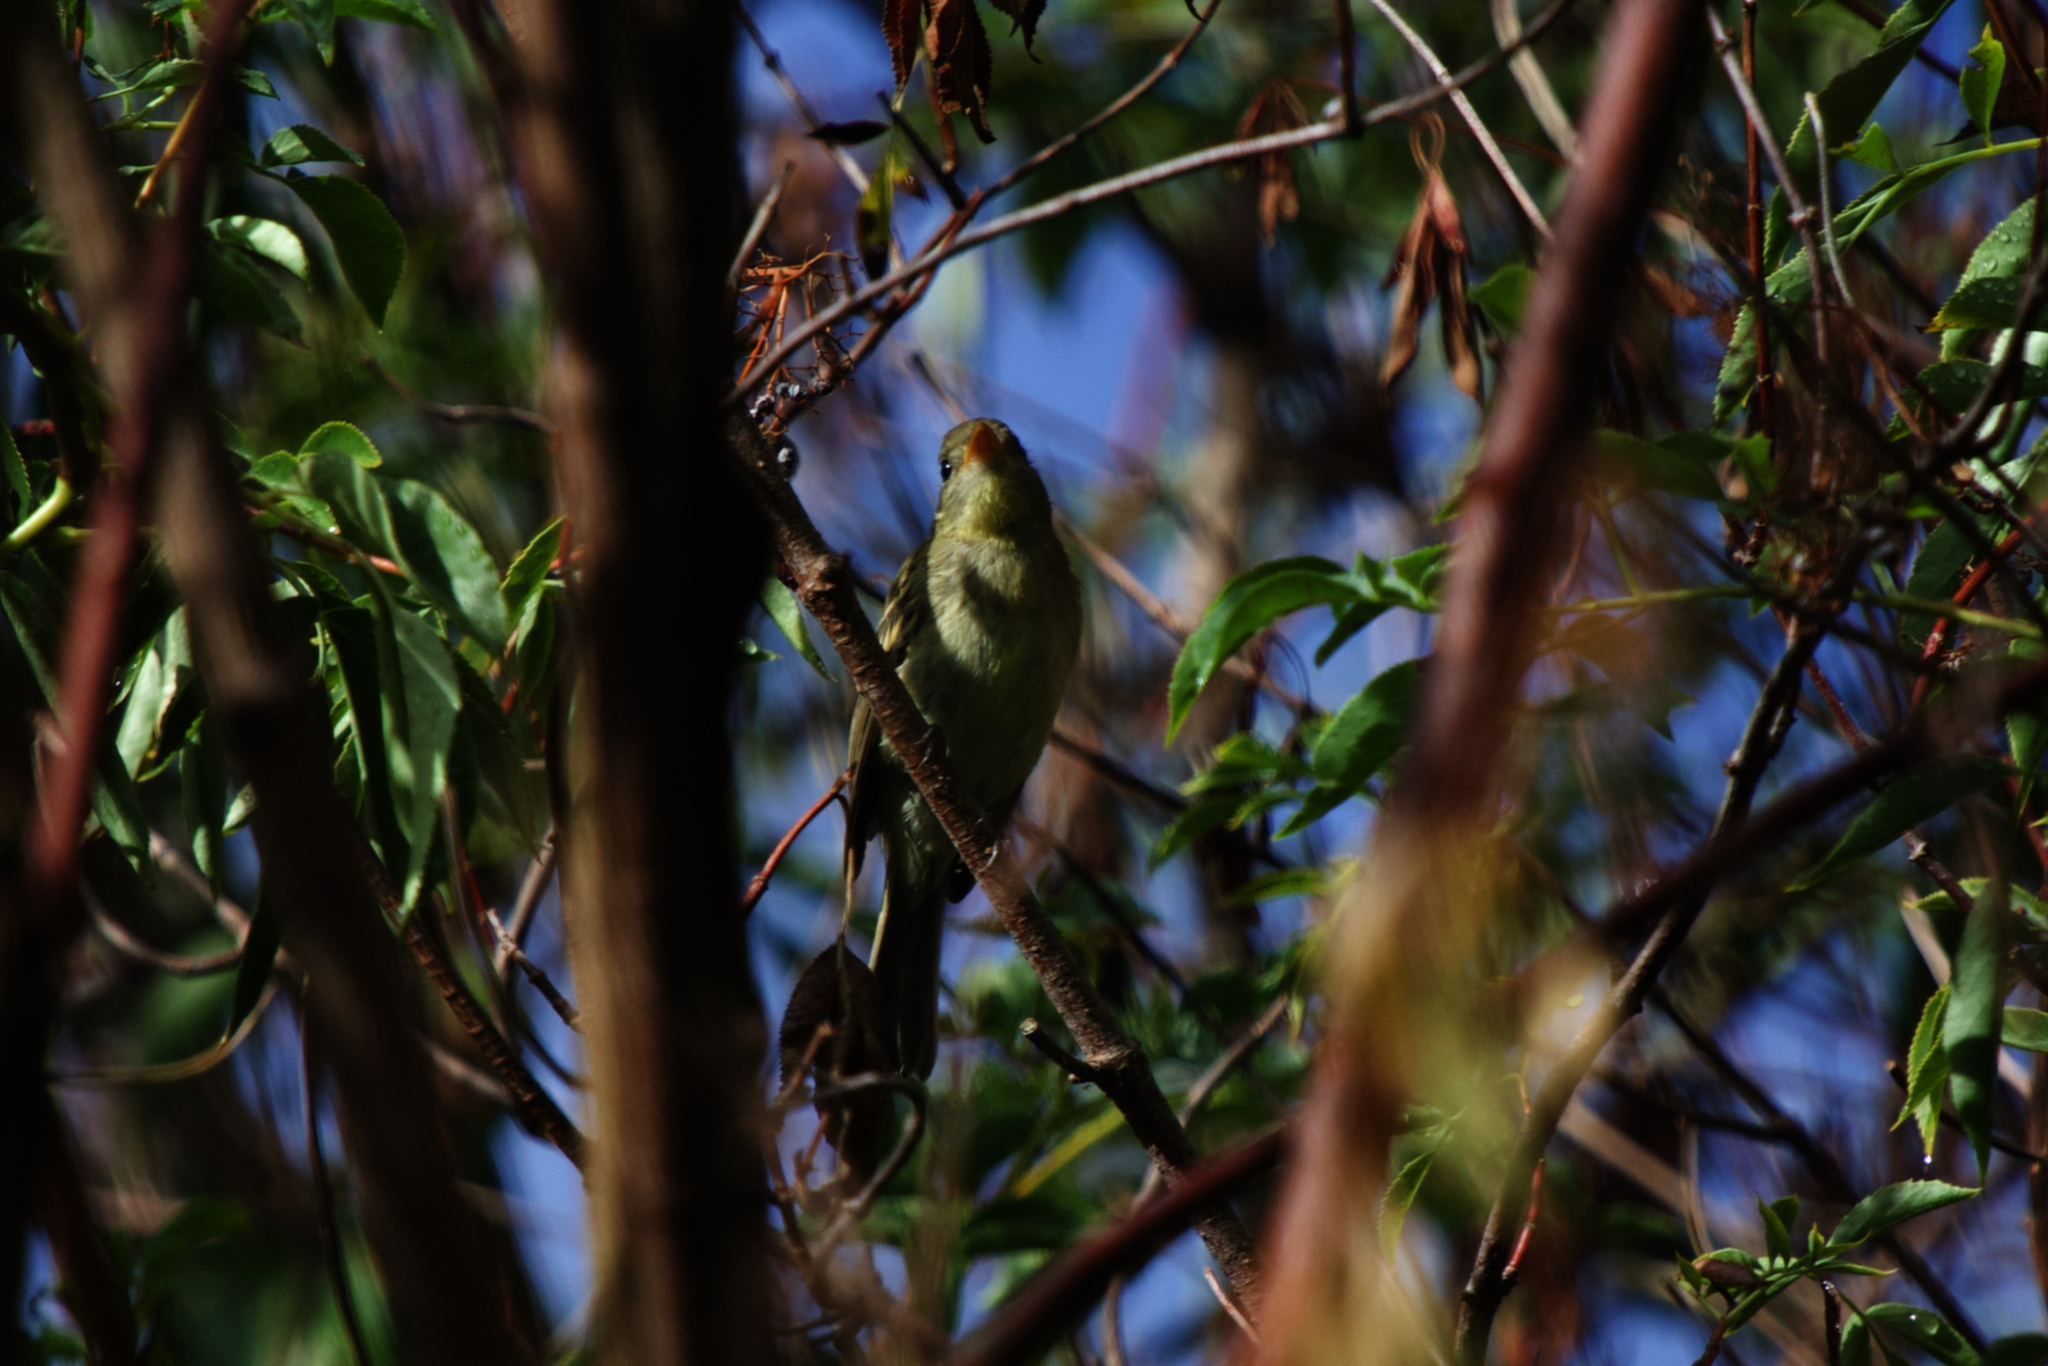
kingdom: Animalia
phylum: Chordata
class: Aves
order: Passeriformes
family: Tyrannidae
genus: Empidonax
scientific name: Empidonax difficilis
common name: Pacific-slope flycatcher
